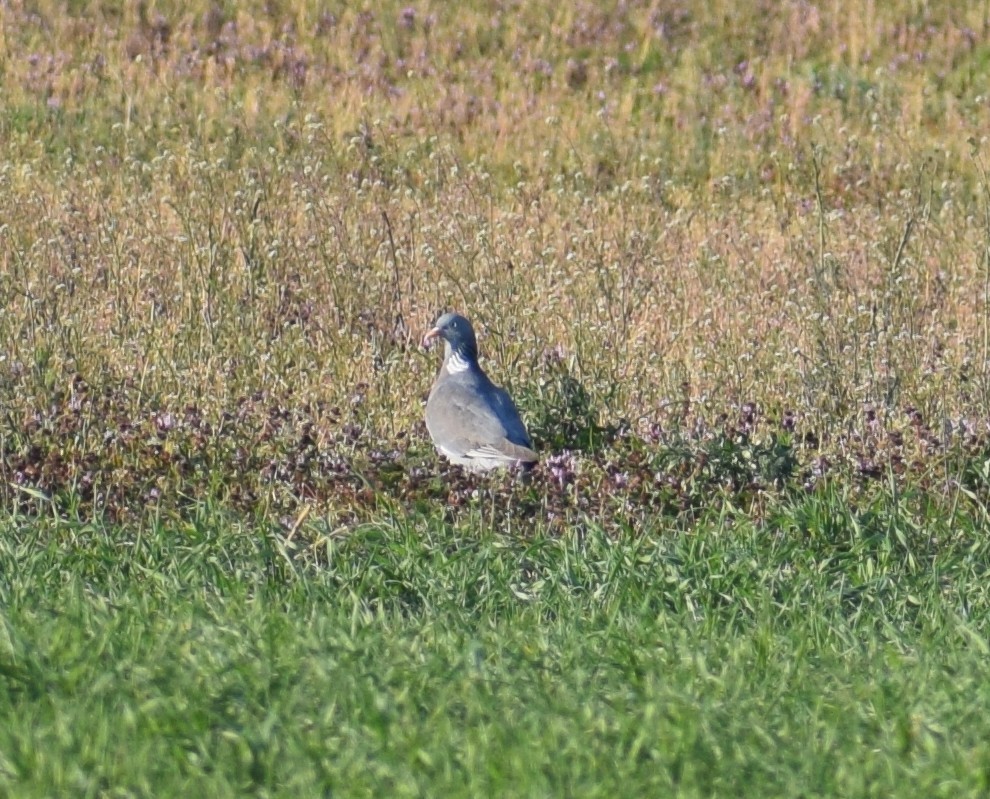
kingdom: Animalia
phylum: Chordata
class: Aves
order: Columbiformes
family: Columbidae
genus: Columba
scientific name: Columba palumbus
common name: Common wood pigeon
